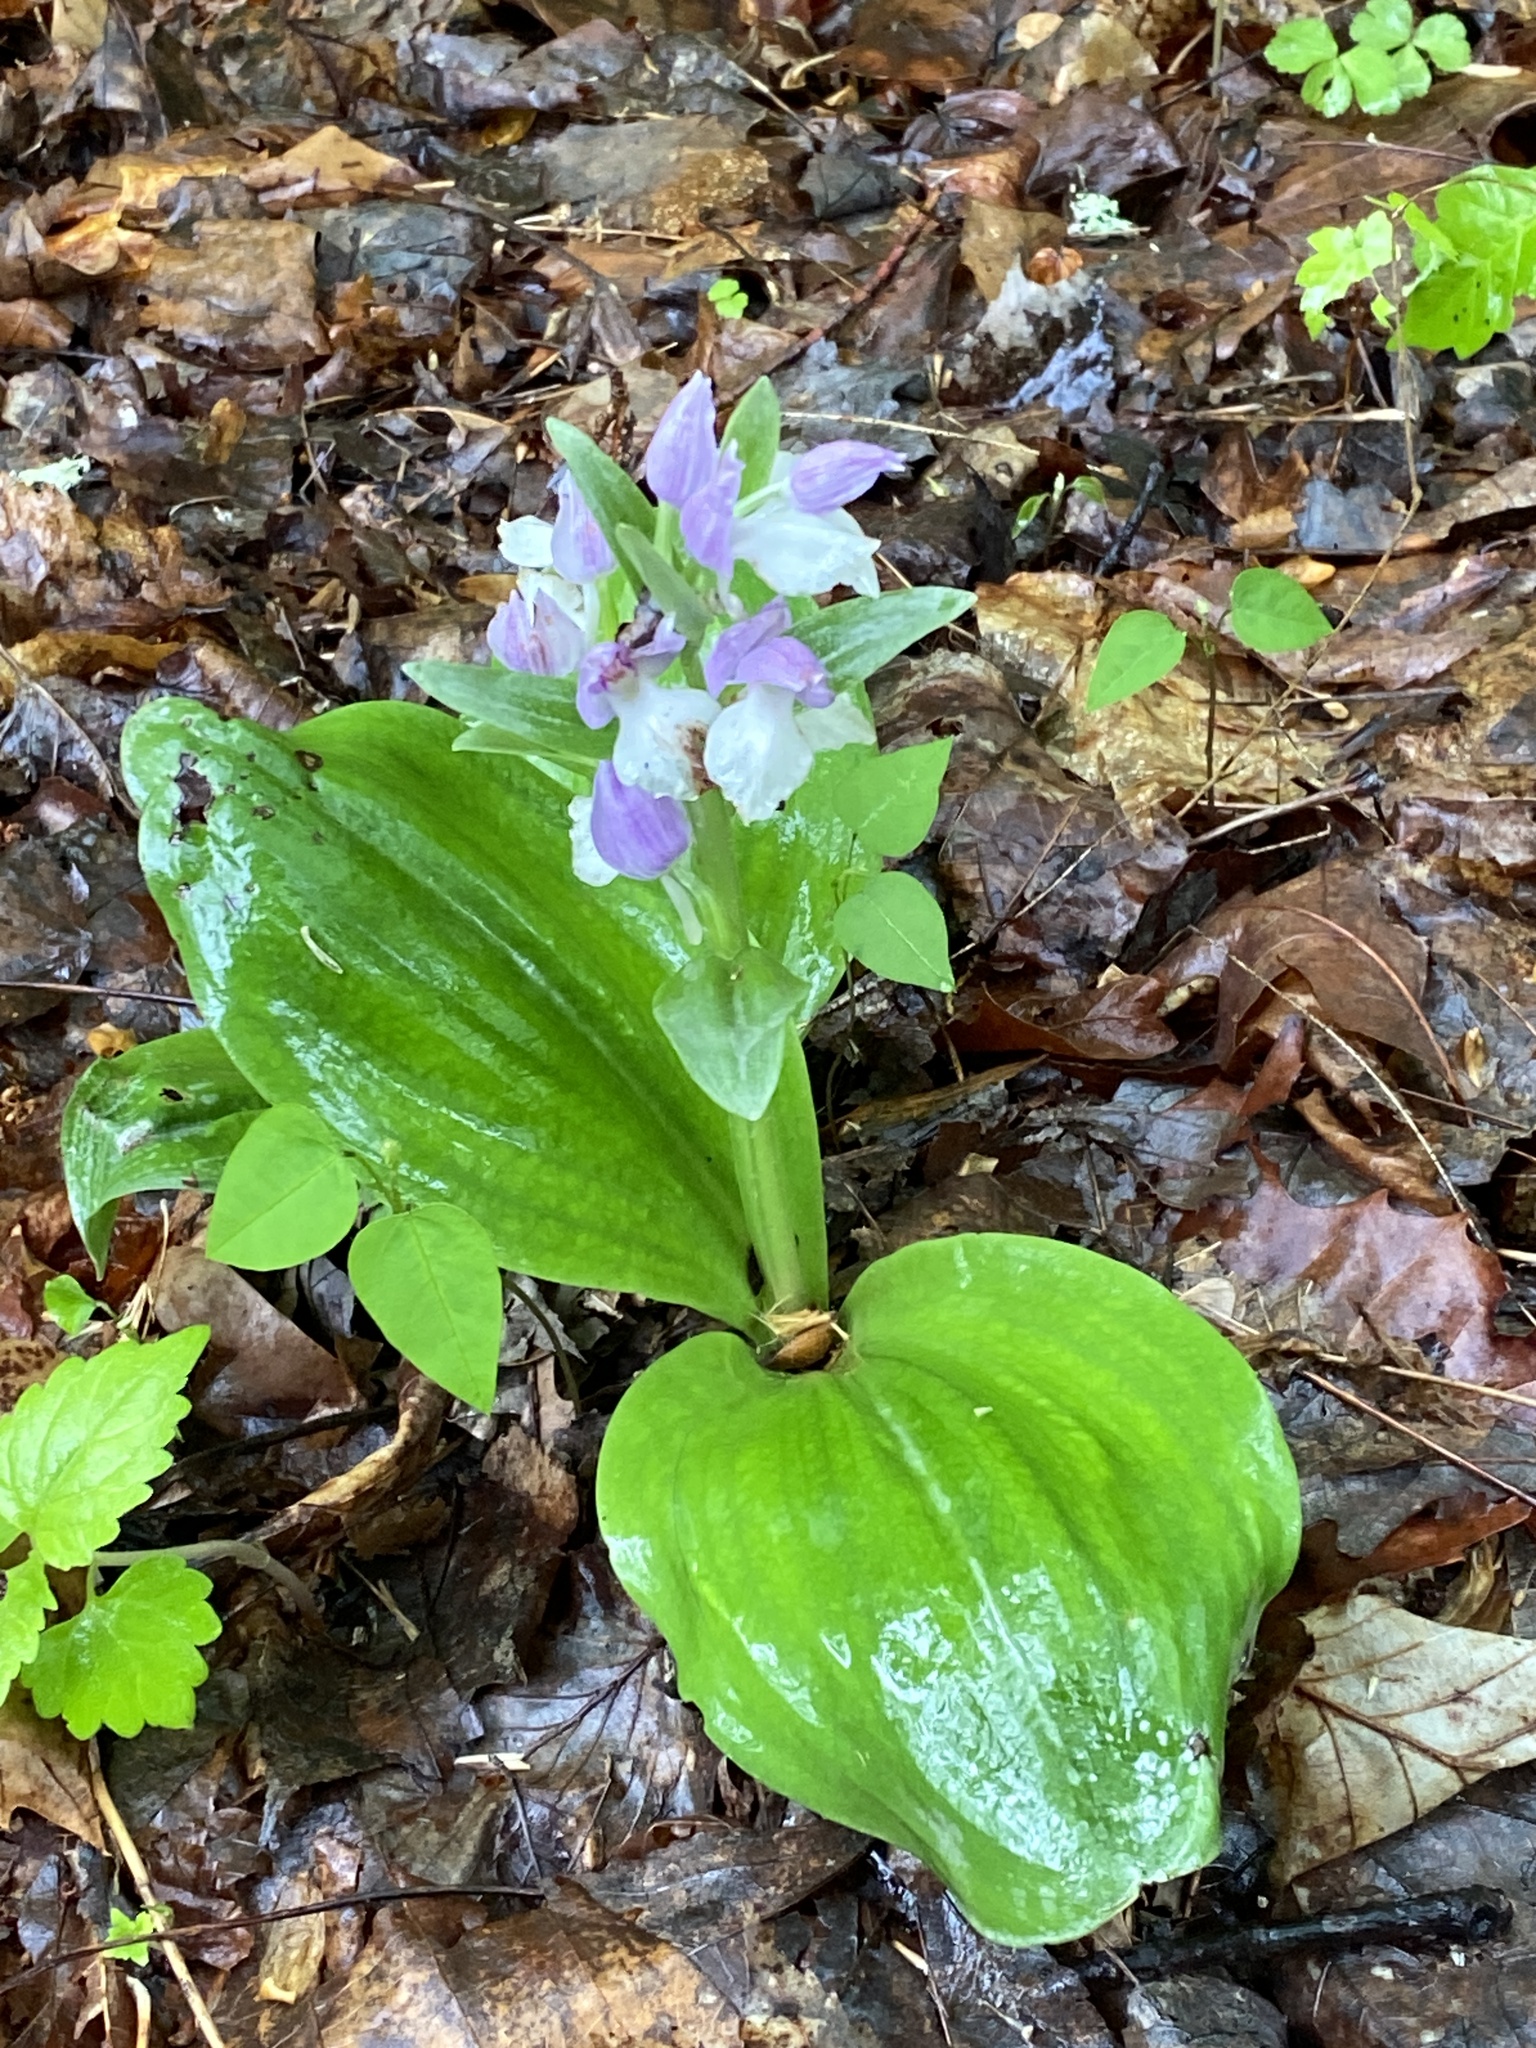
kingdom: Plantae
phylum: Tracheophyta
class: Liliopsida
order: Asparagales
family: Orchidaceae
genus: Galearis
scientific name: Galearis spectabilis
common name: Purple-hooded orchis
